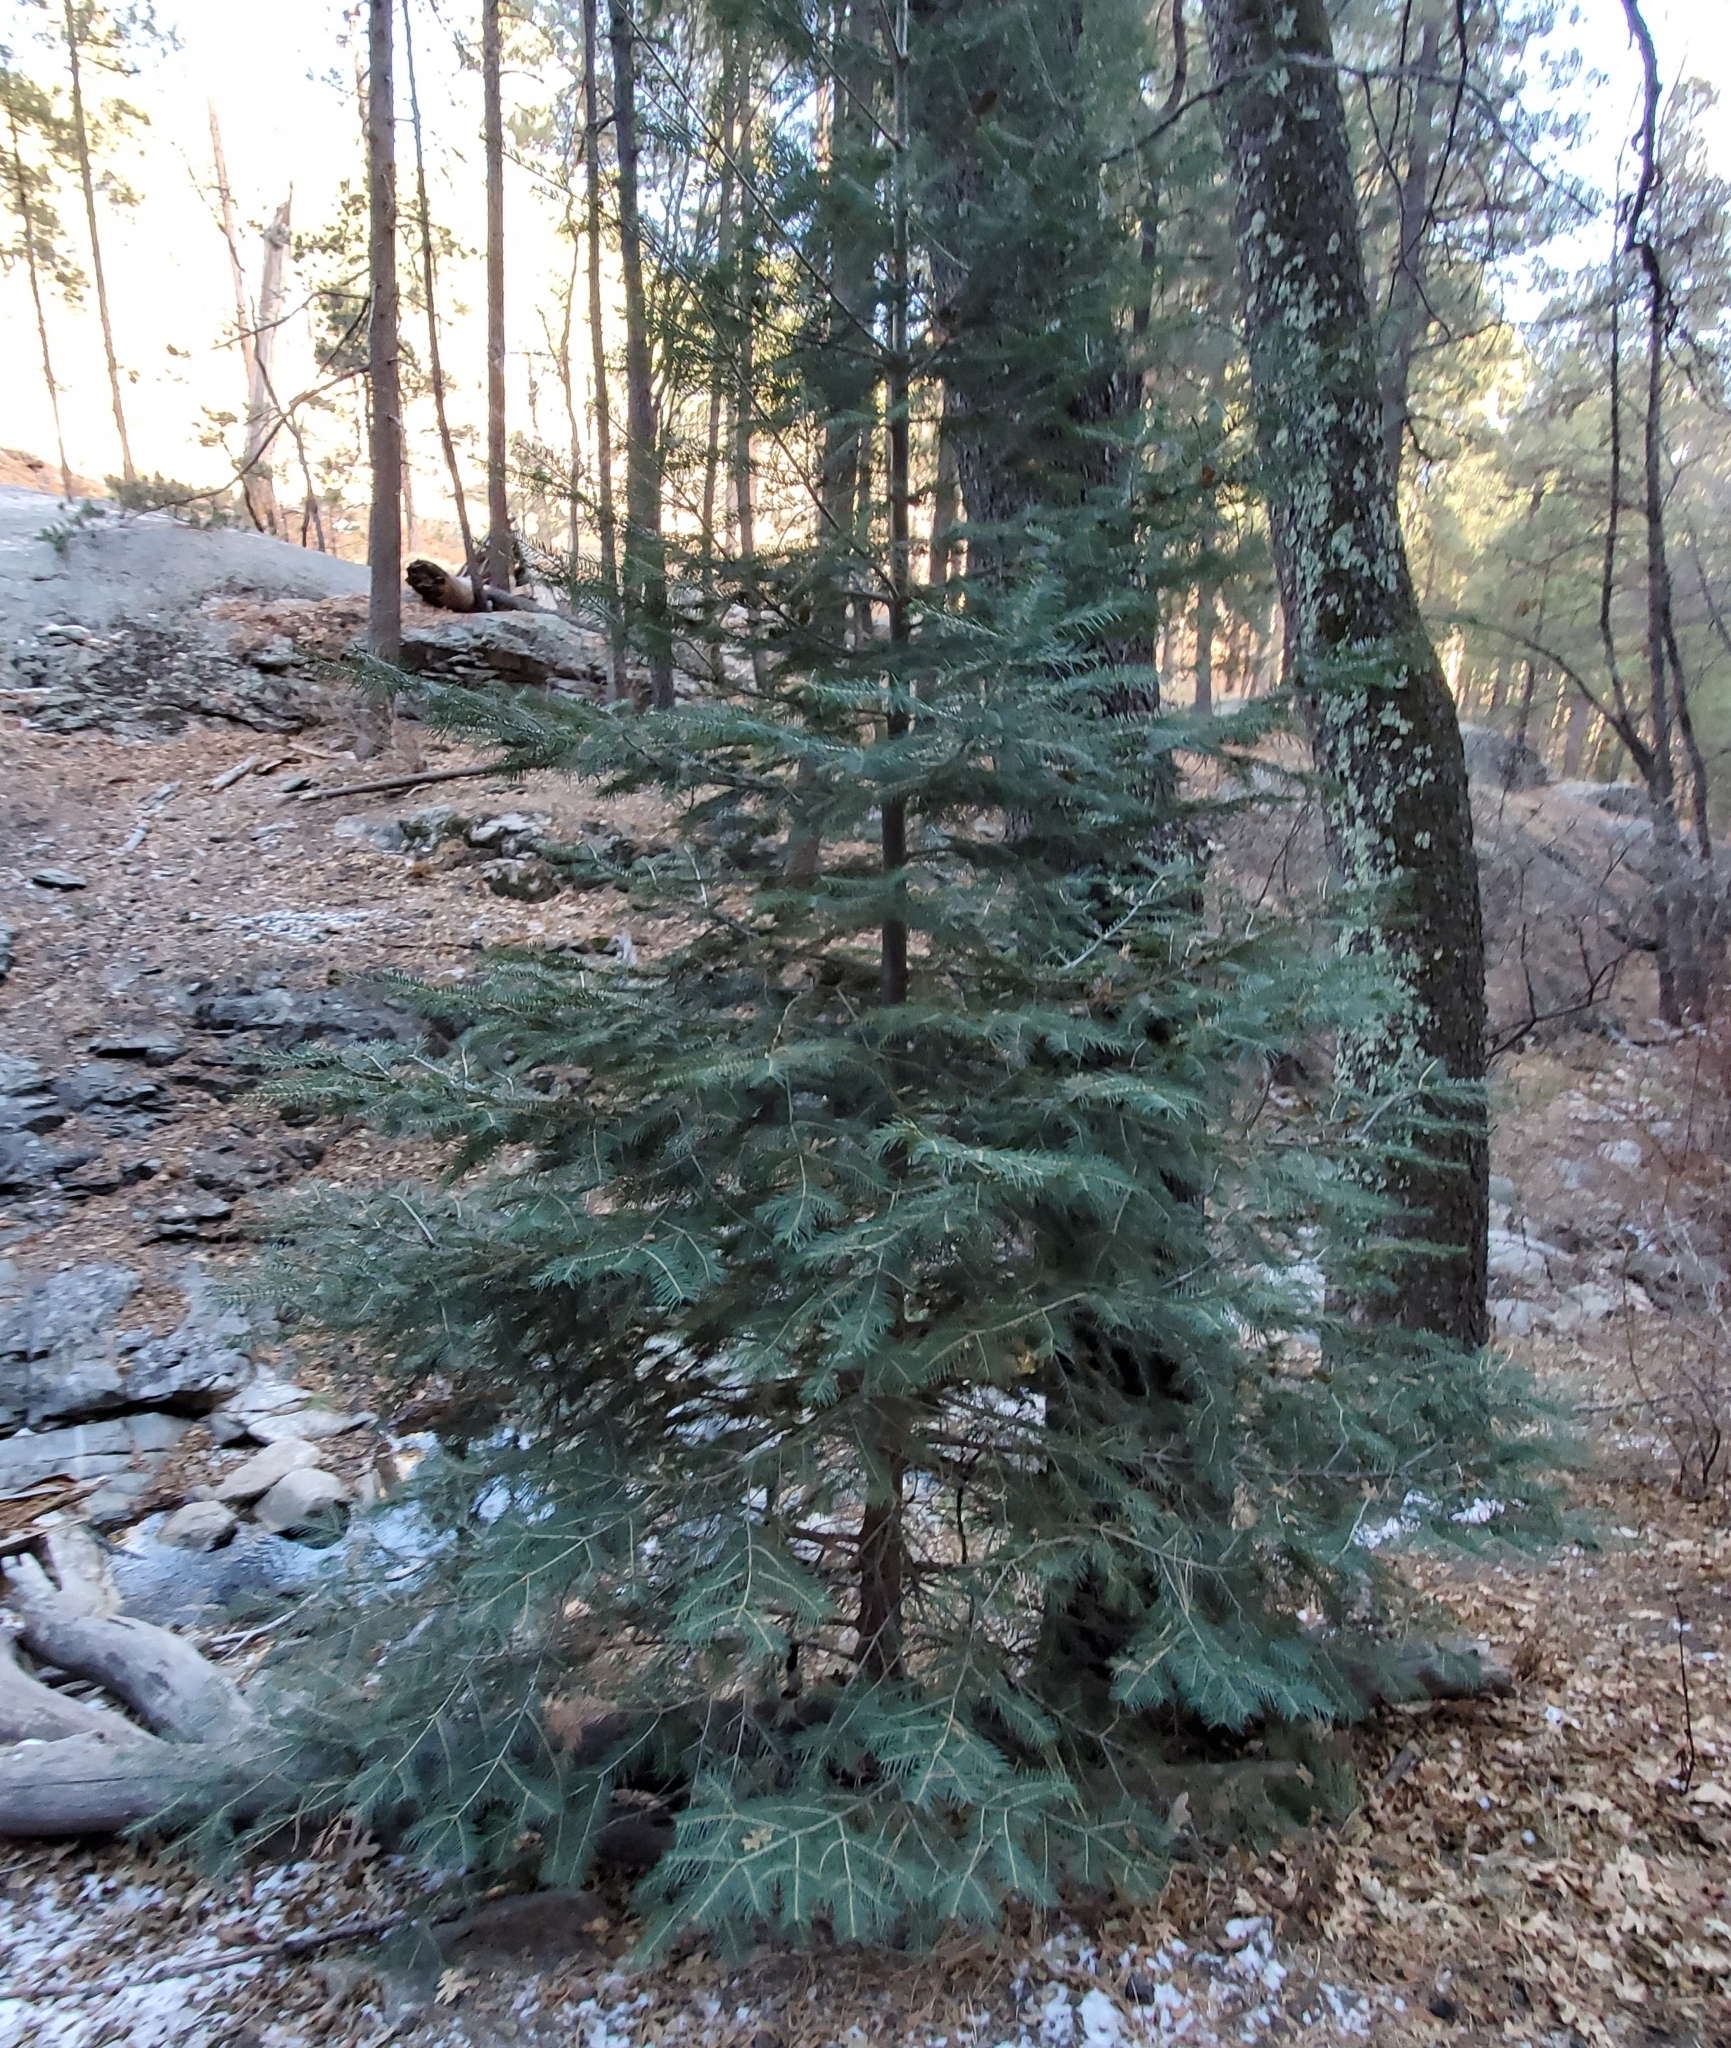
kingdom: Plantae
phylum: Tracheophyta
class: Pinopsida
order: Pinales
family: Pinaceae
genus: Abies
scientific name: Abies concolor
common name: Colorado fir
